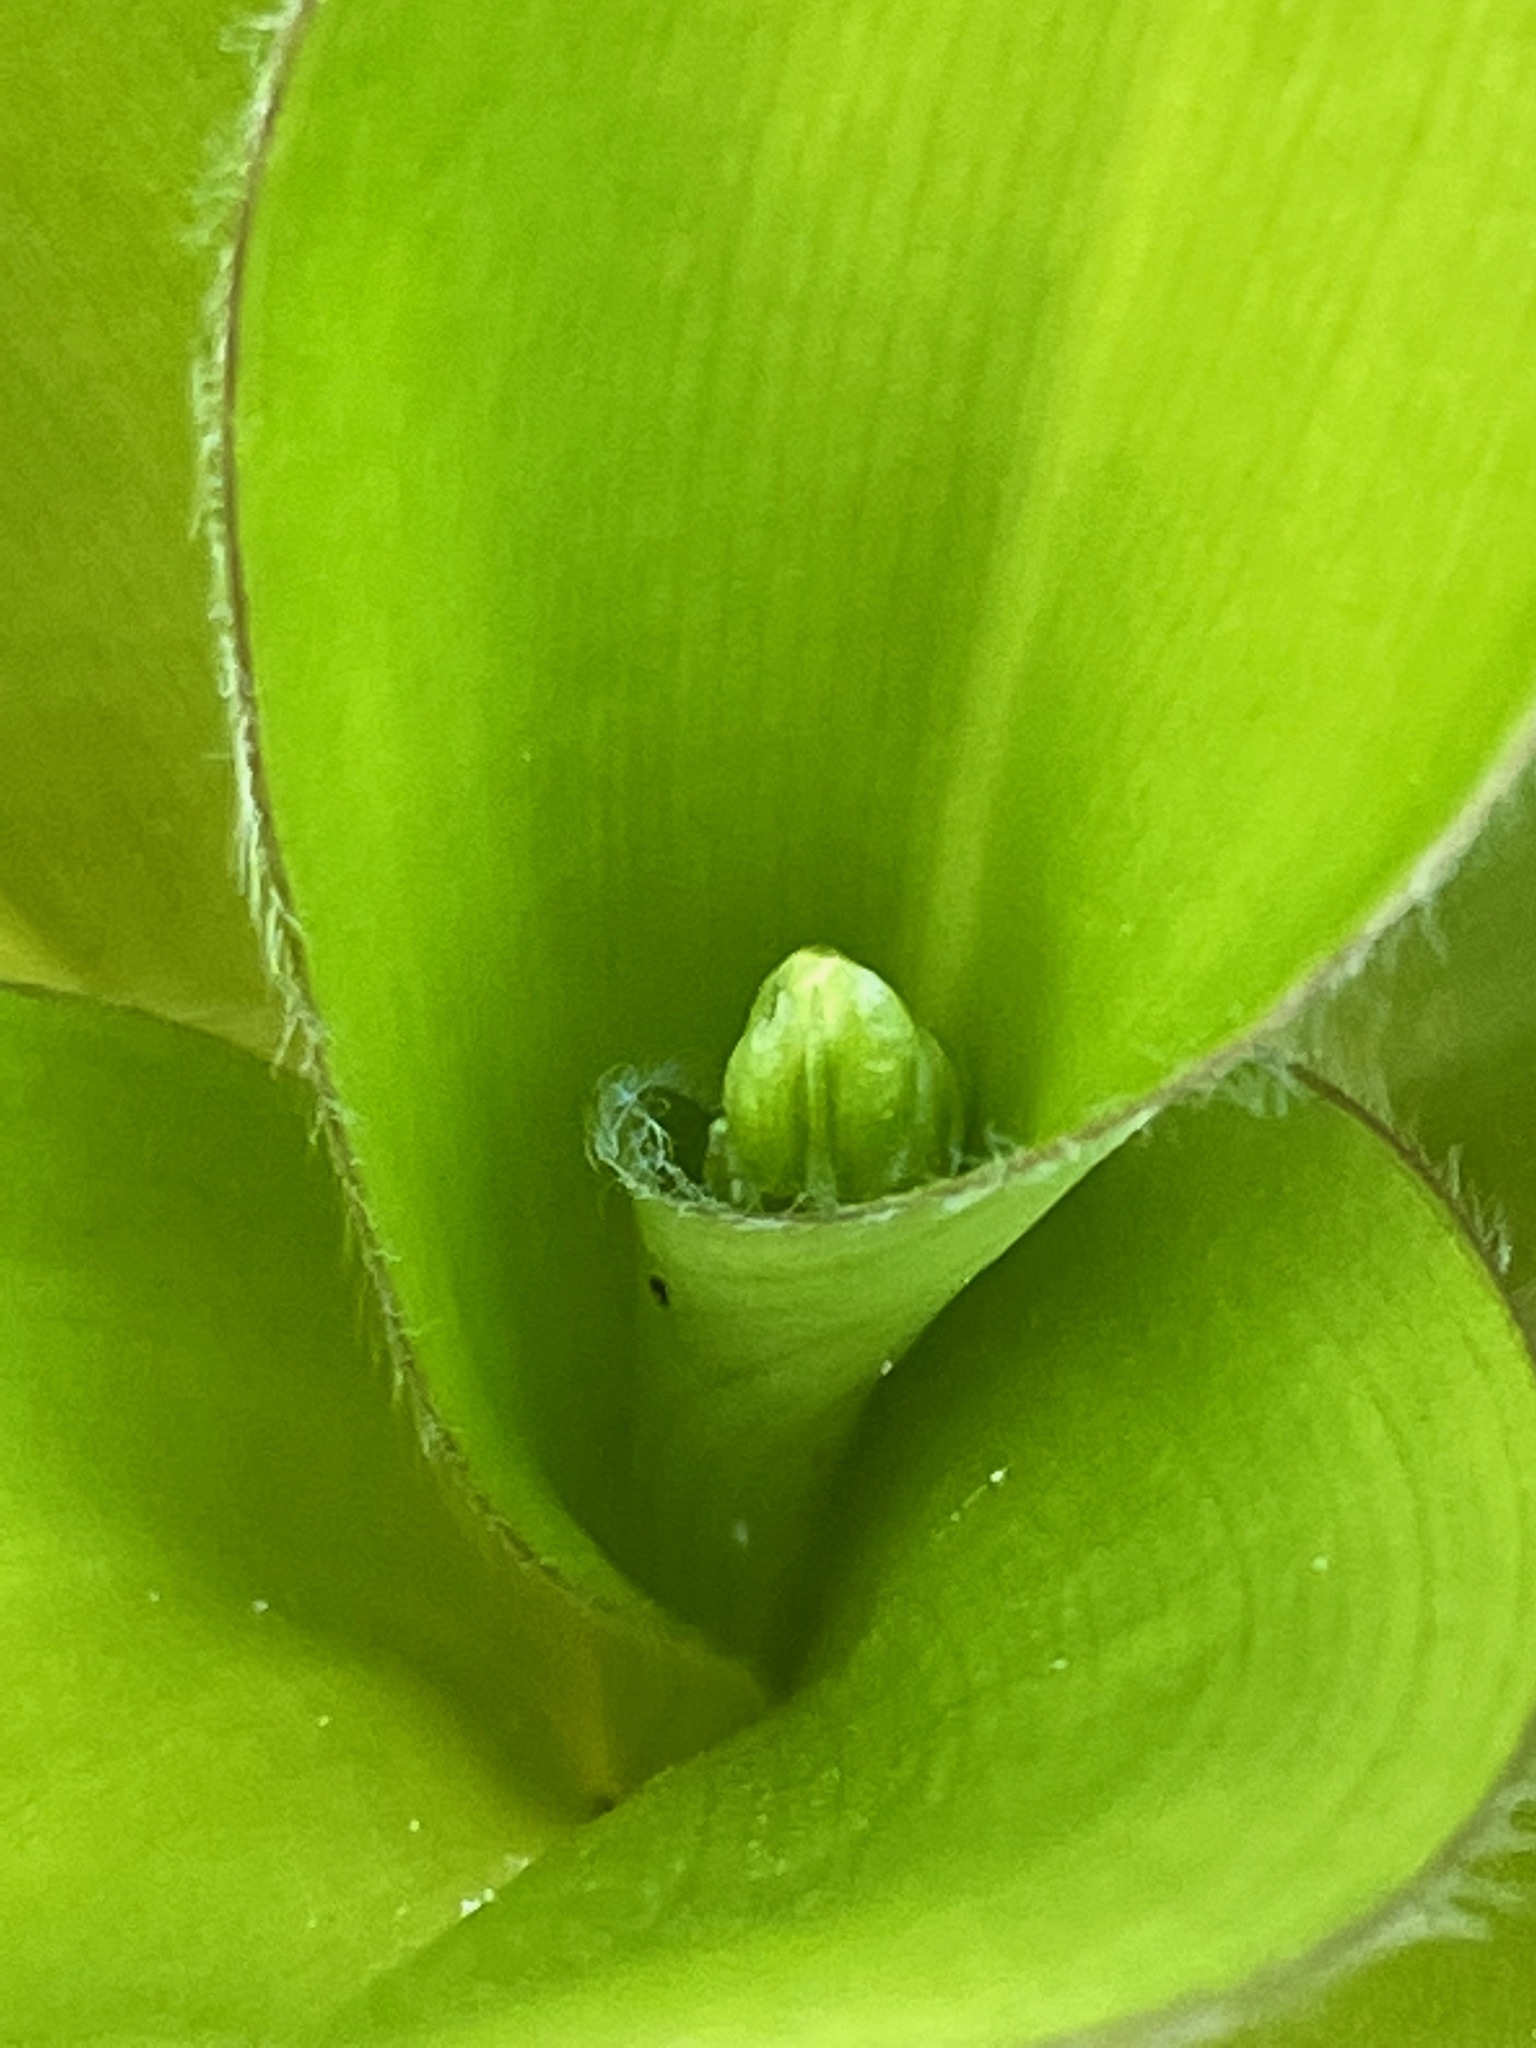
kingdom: Plantae
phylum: Tracheophyta
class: Liliopsida
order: Liliales
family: Liliaceae
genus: Clintonia
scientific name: Clintonia borealis
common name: Yellow clintonia
